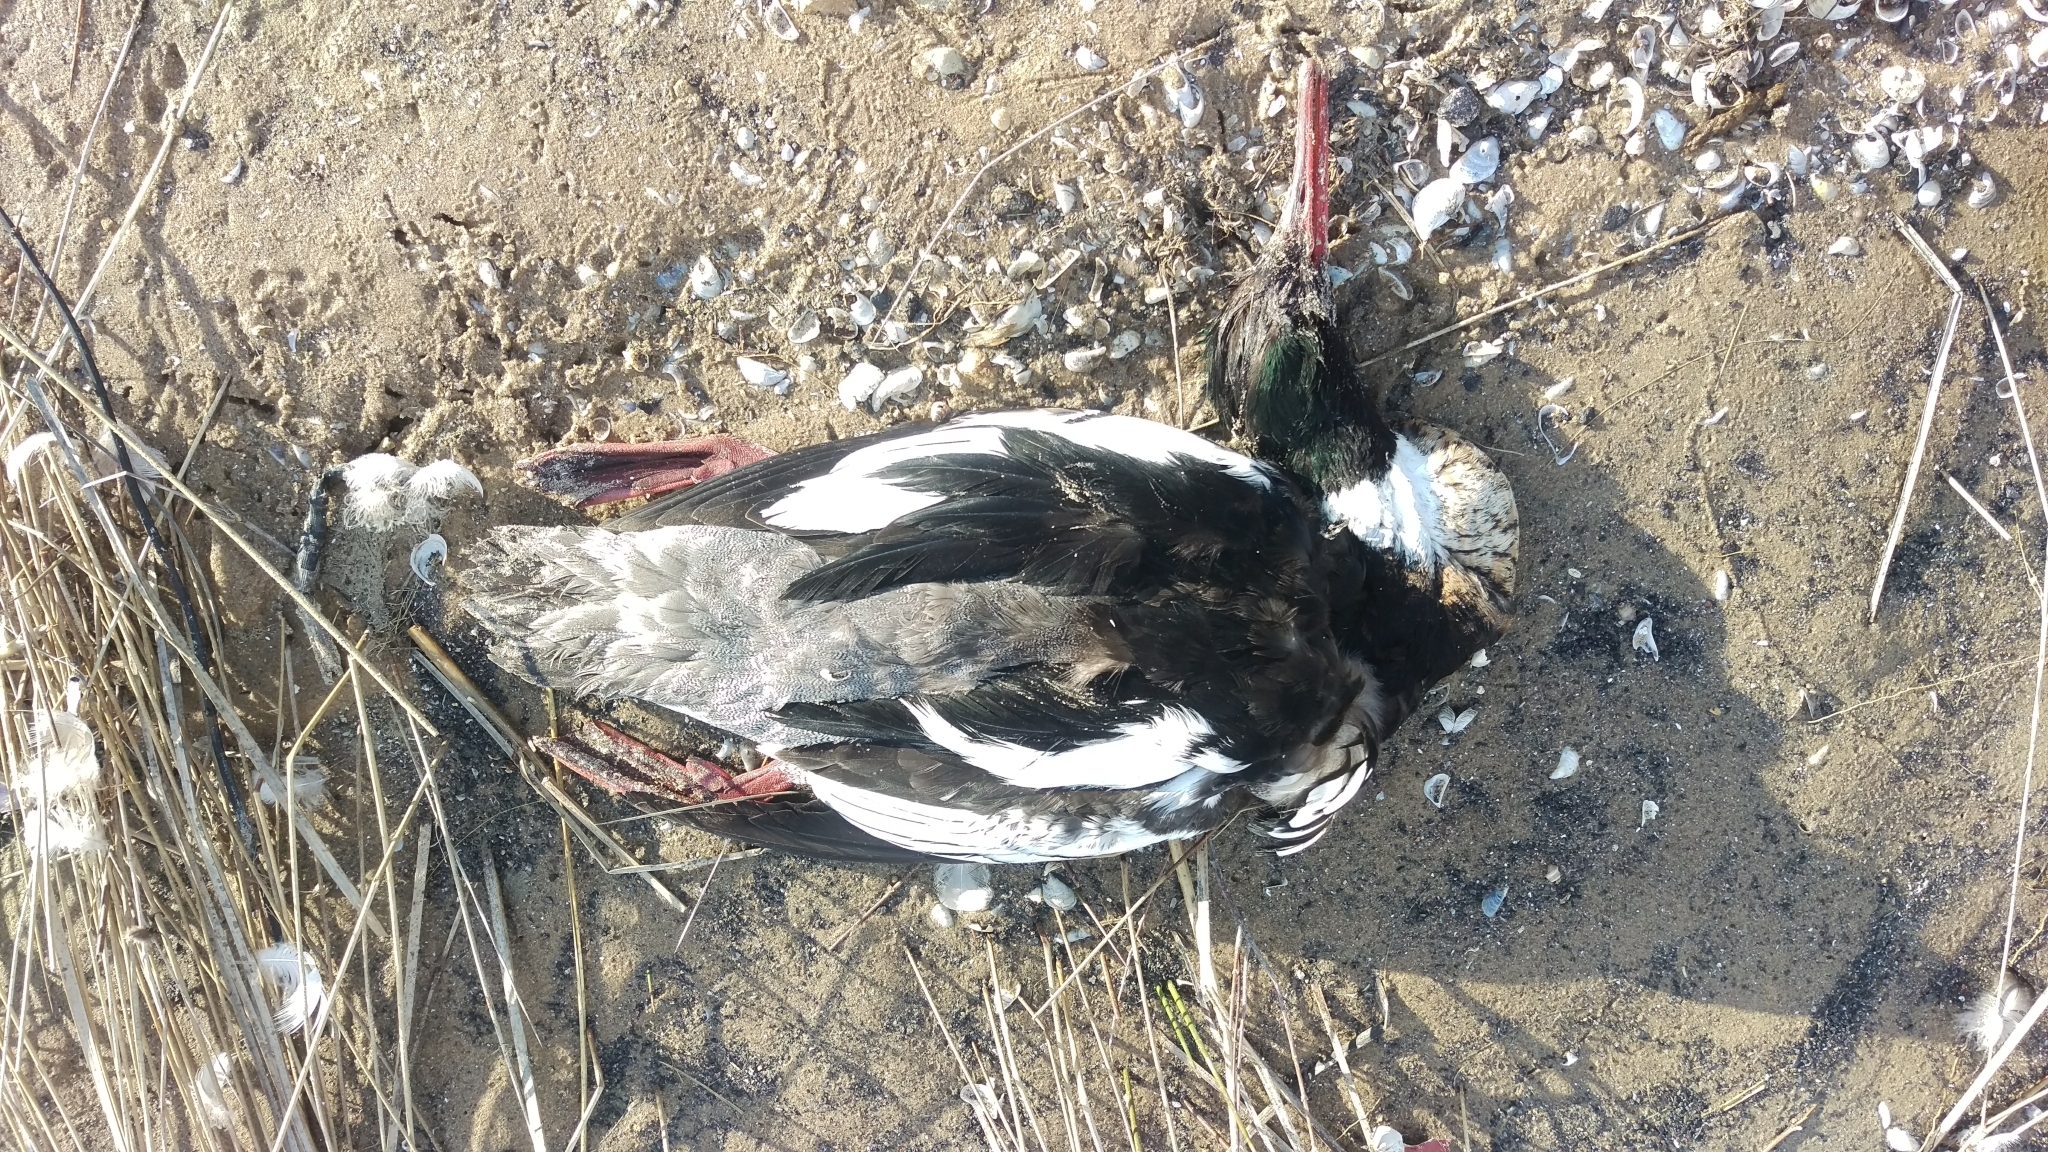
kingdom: Animalia
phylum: Chordata
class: Aves
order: Anseriformes
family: Anatidae
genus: Mergus
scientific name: Mergus serrator
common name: Red-breasted merganser
